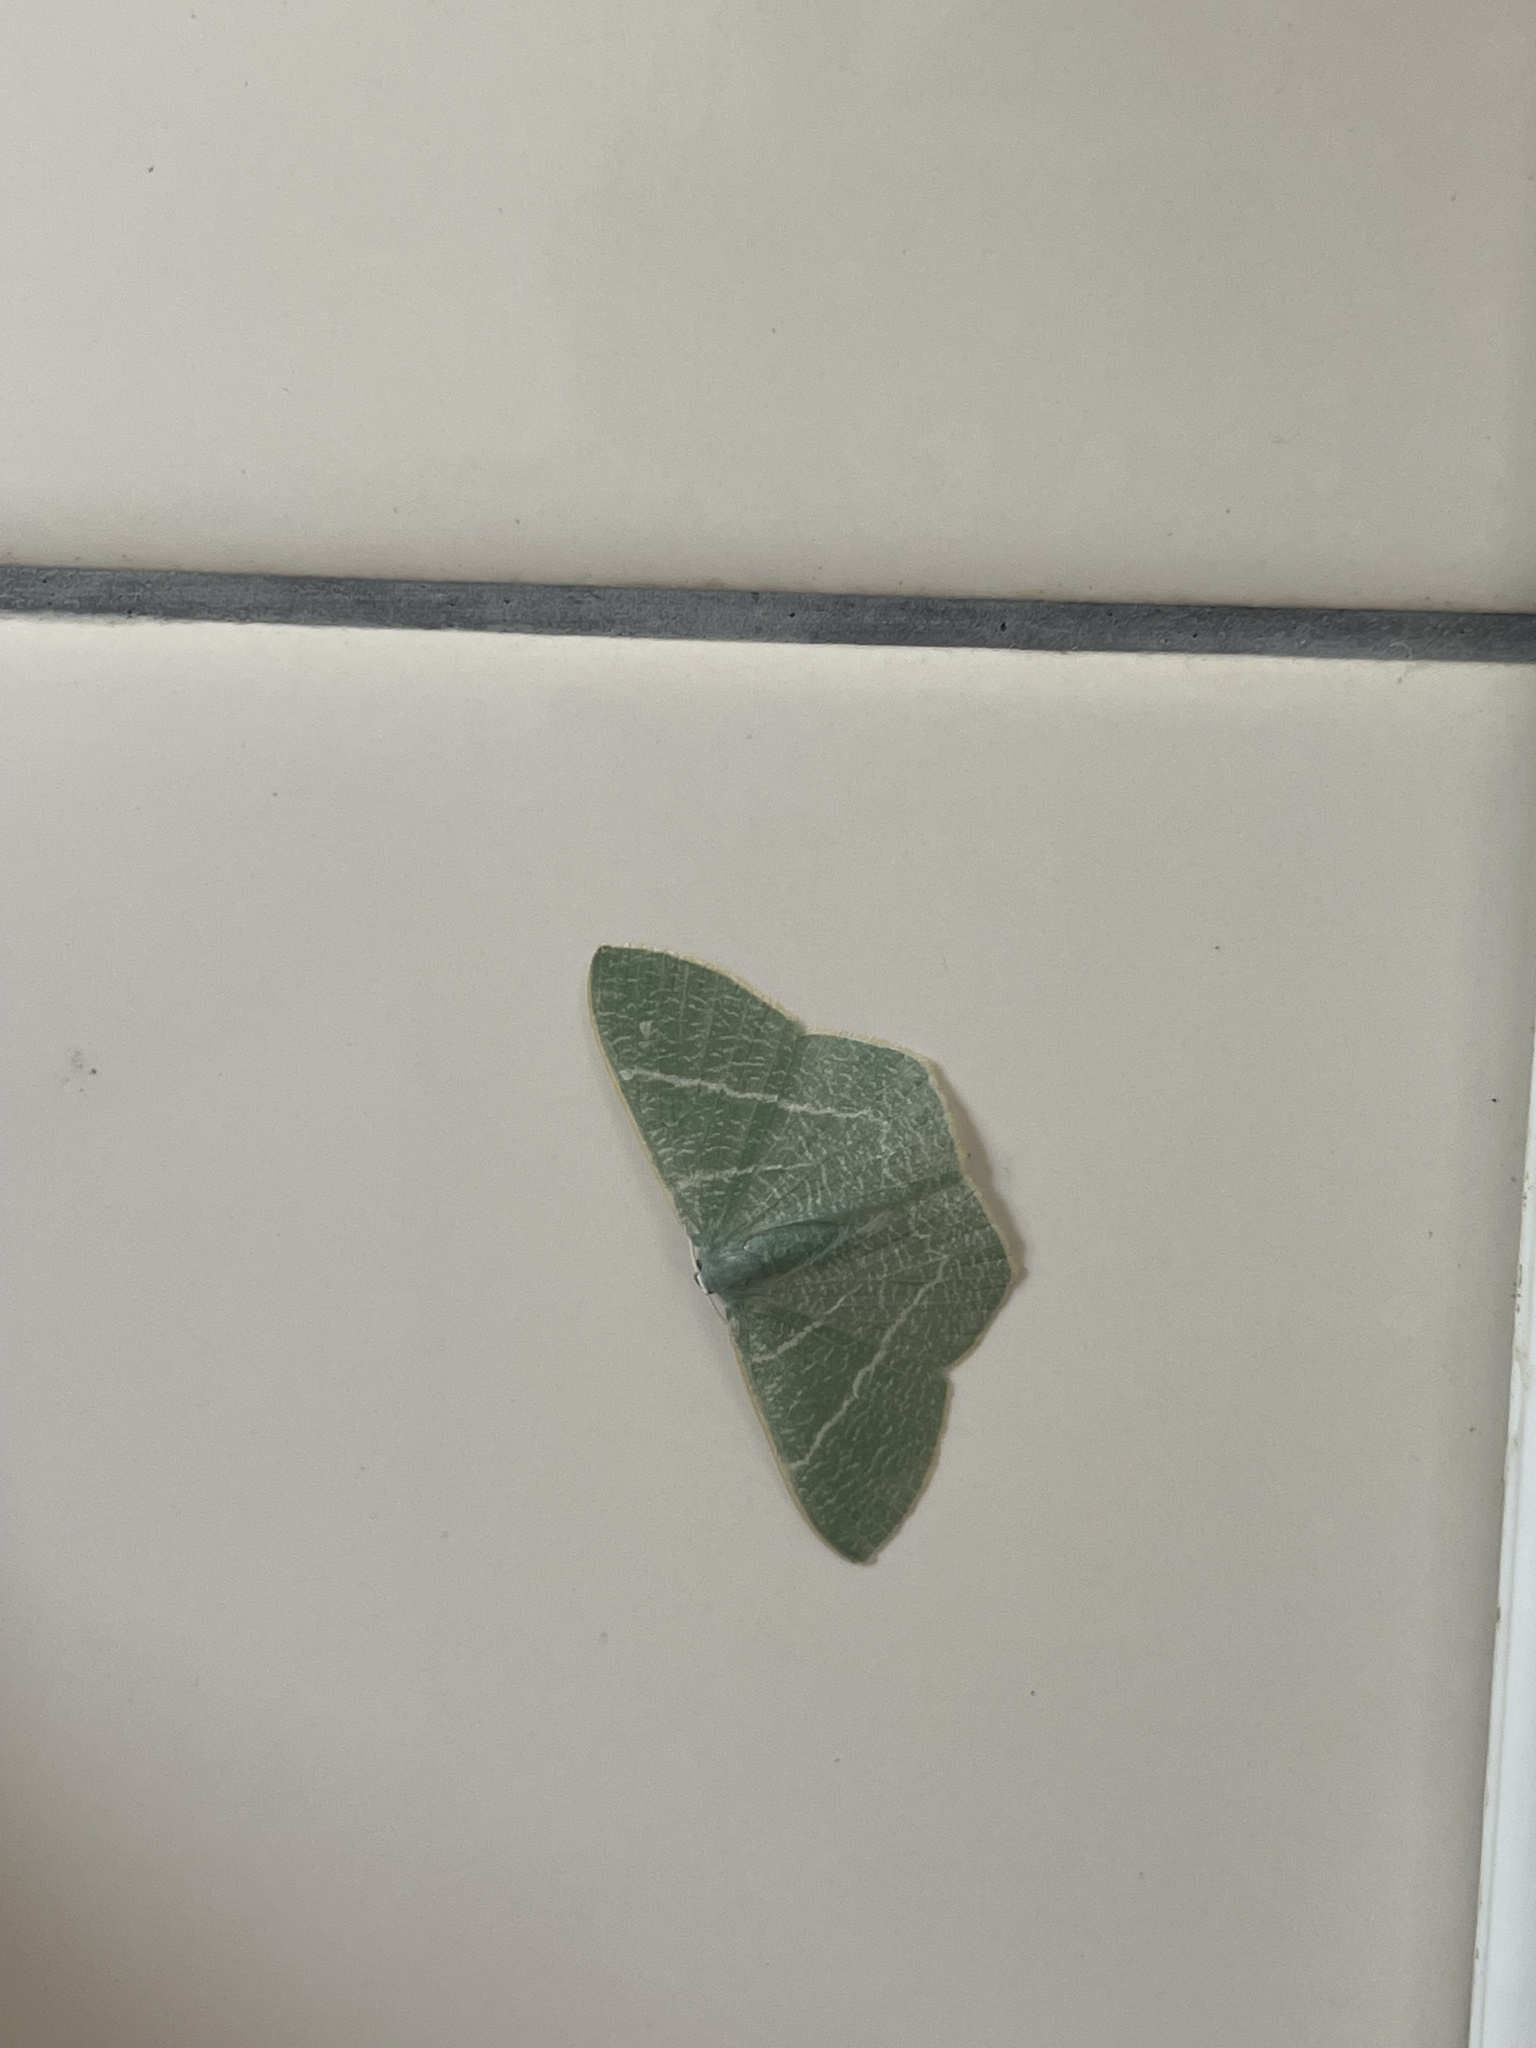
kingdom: Animalia
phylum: Arthropoda
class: Insecta
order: Lepidoptera
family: Geometridae
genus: Pelagodes
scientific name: Pelagodes proquadraria
